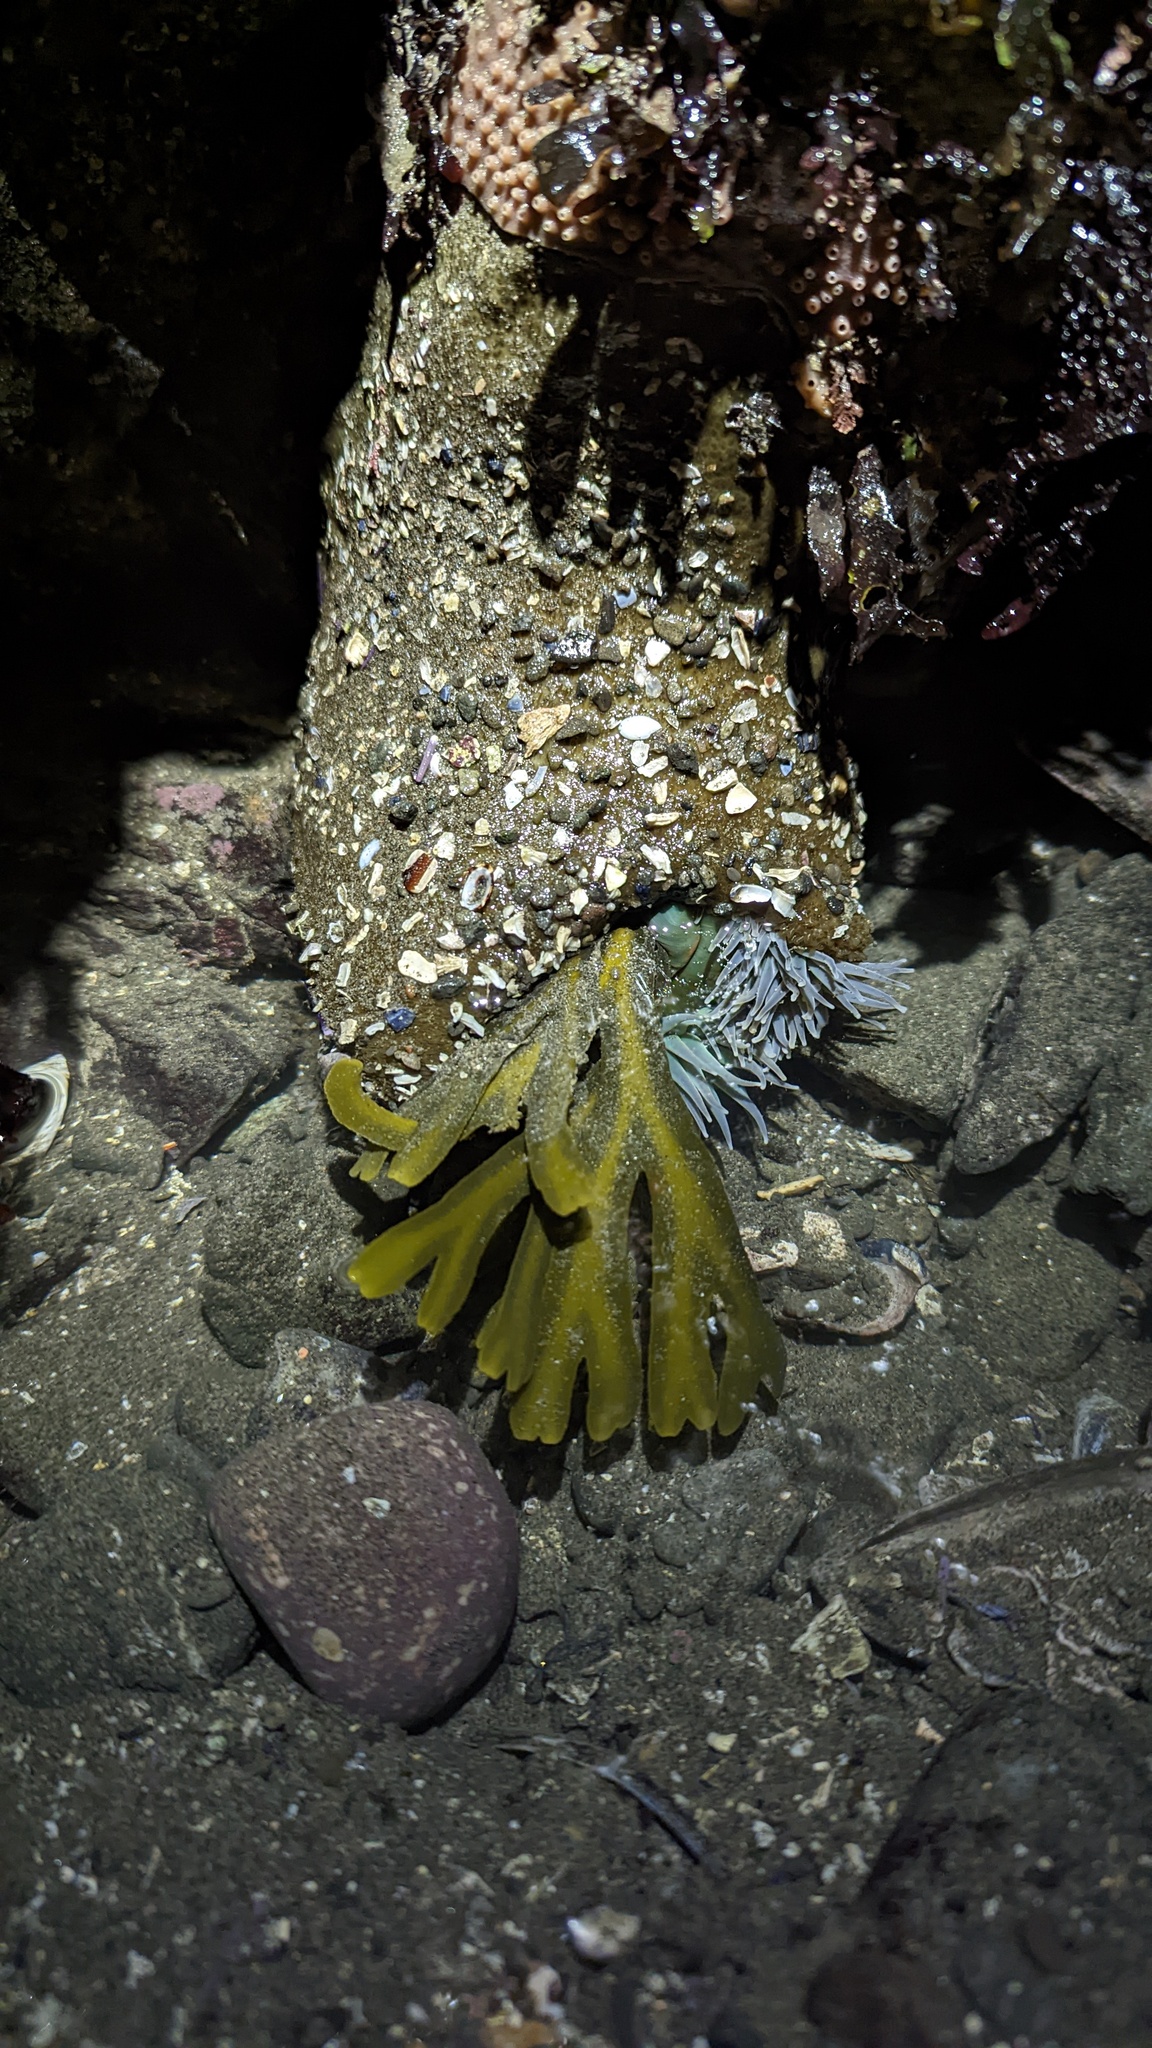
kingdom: Chromista
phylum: Ochrophyta
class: Phaeophyceae
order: Fucales
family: Fucaceae
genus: Fucus
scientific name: Fucus distichus
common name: Rockweed
